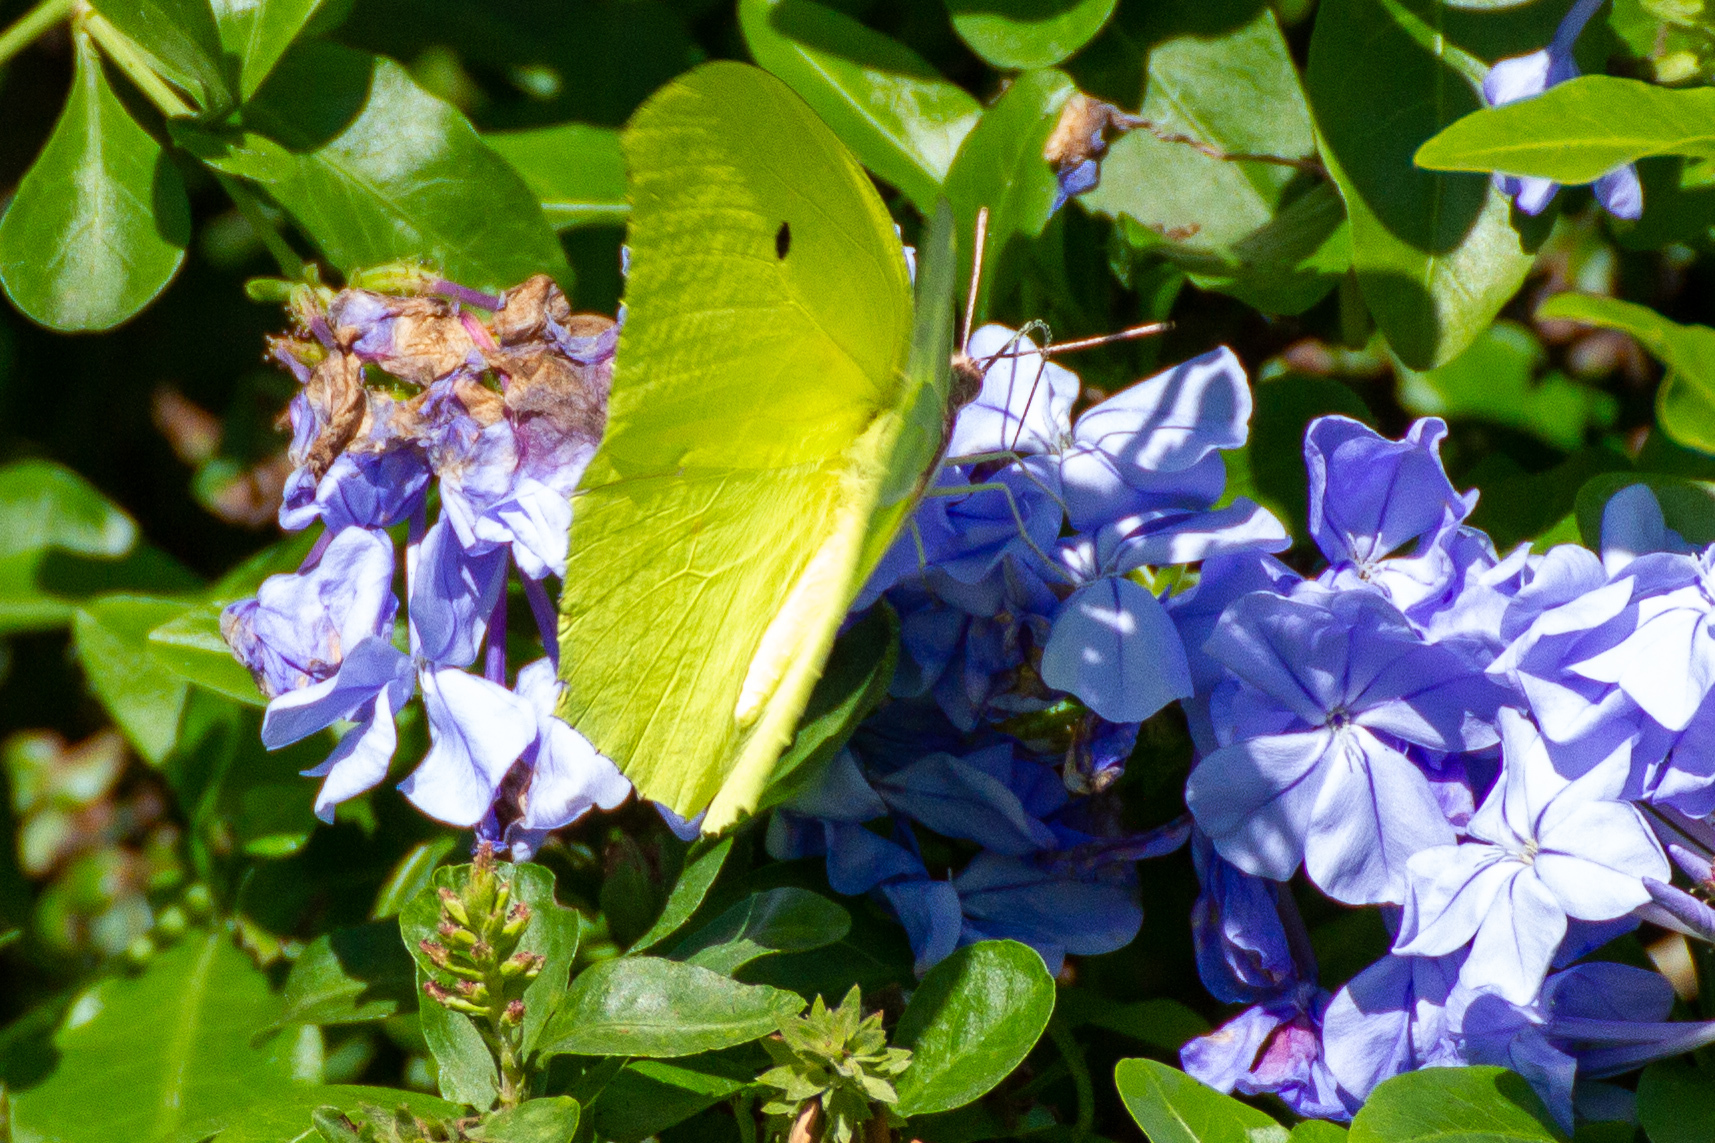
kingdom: Animalia
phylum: Arthropoda
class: Insecta
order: Lepidoptera
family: Pieridae
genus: Anteos
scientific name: Anteos maerula
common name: Angled sulphur
